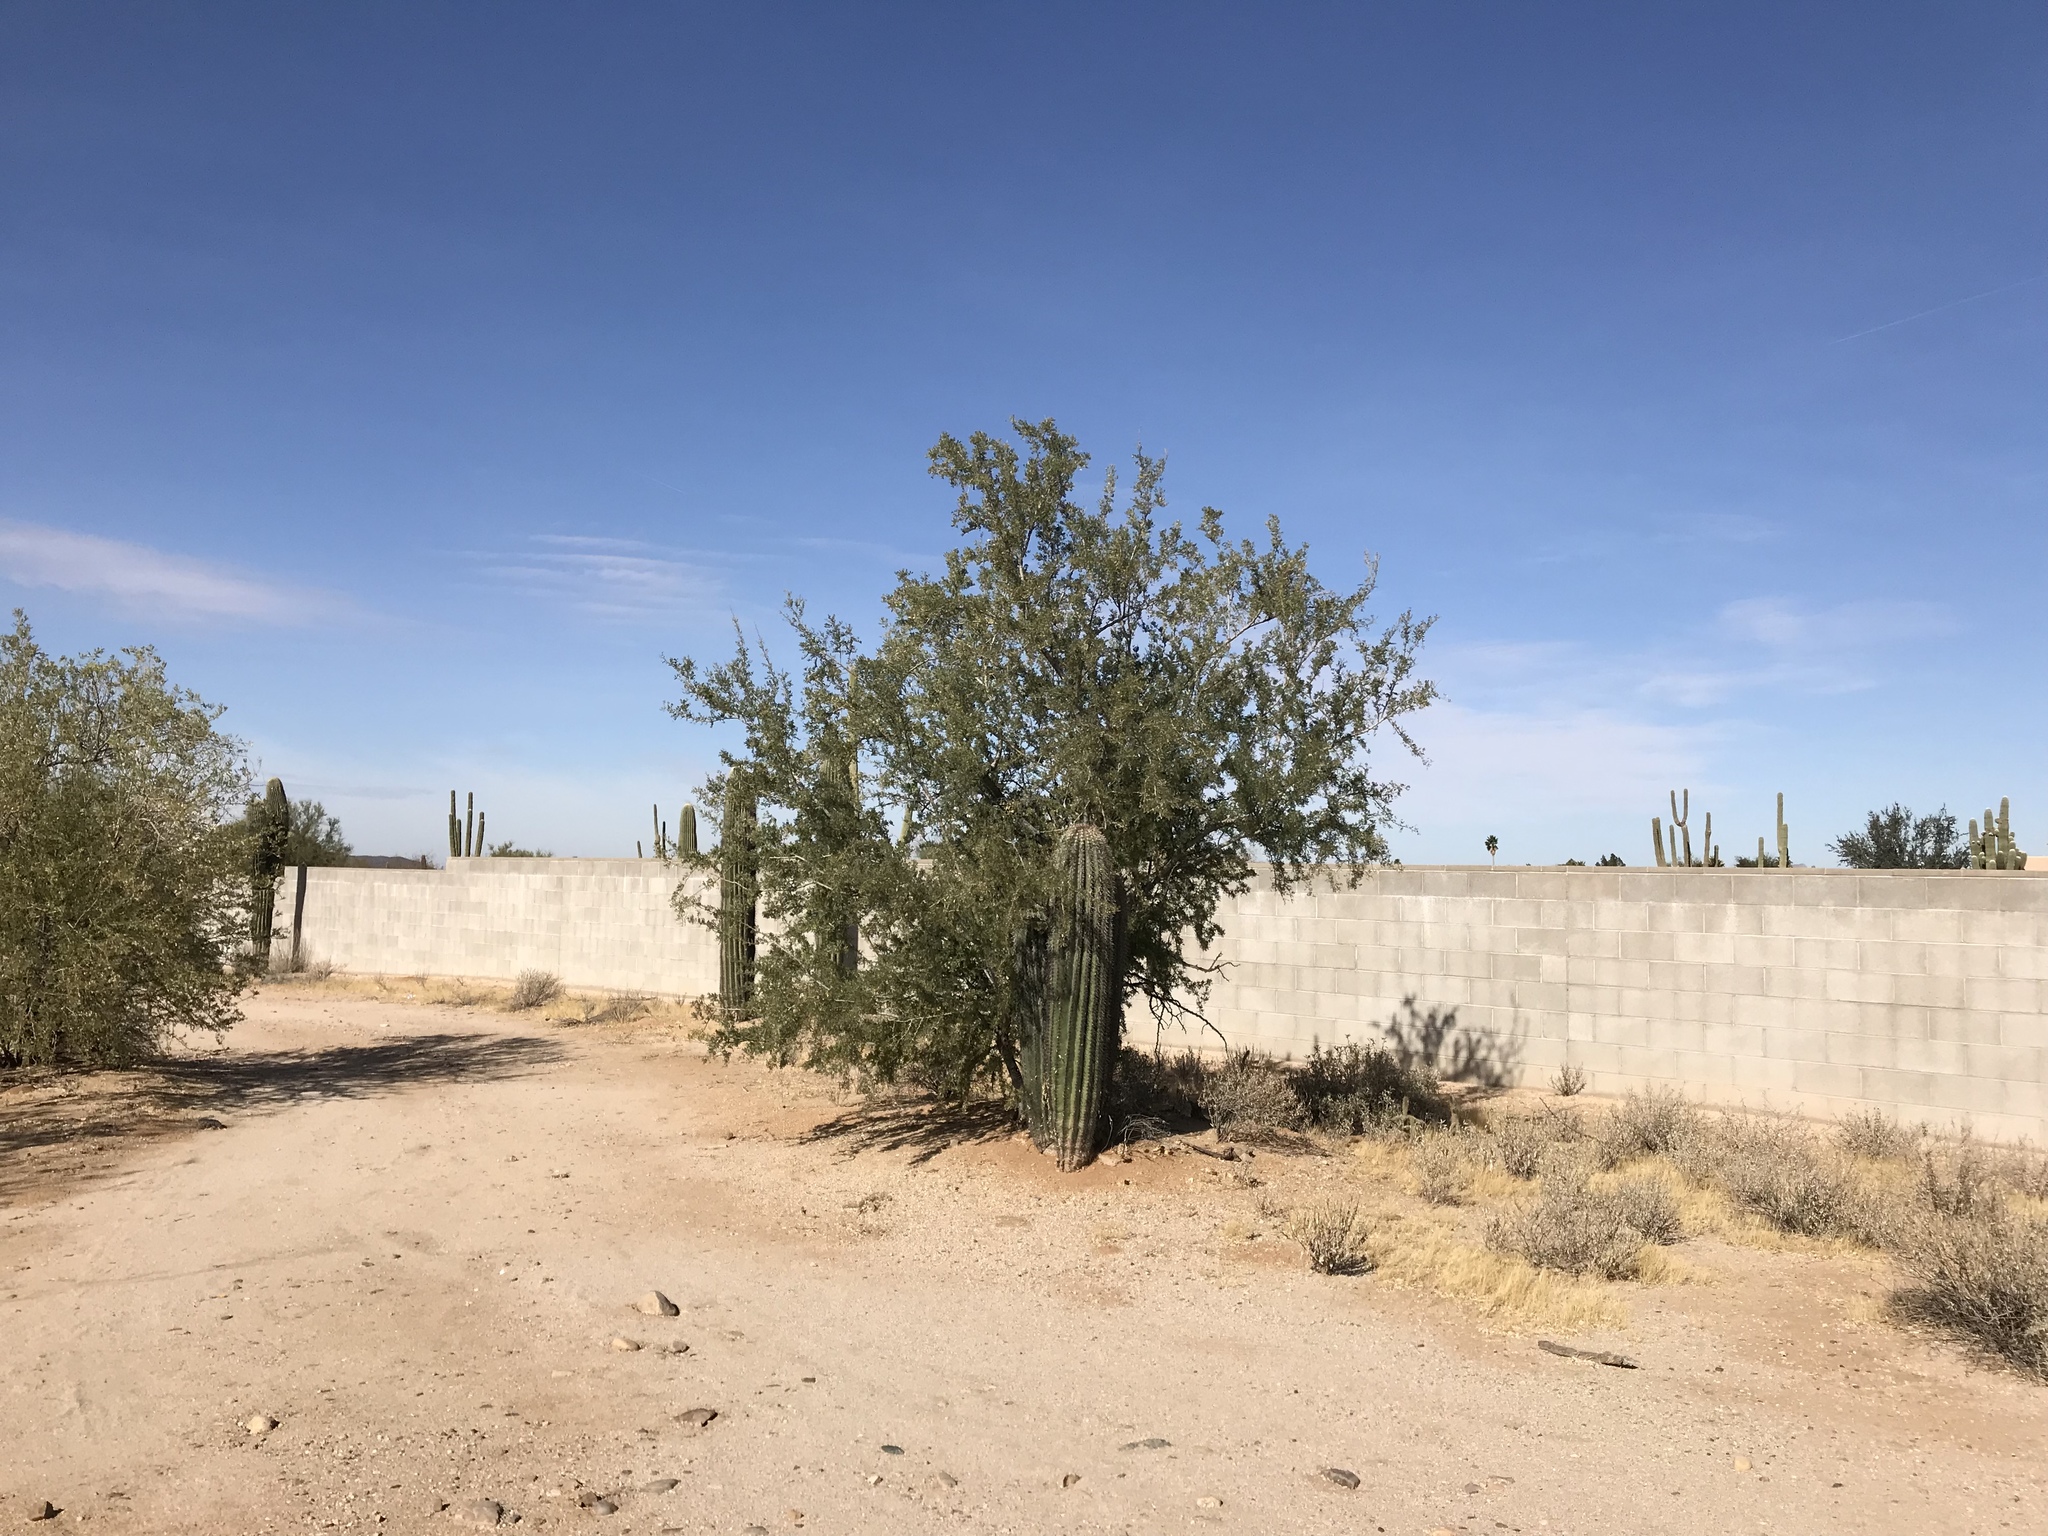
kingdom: Plantae
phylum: Tracheophyta
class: Magnoliopsida
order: Fabales
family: Fabaceae
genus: Olneya
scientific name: Olneya tesota
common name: Desert ironwood
